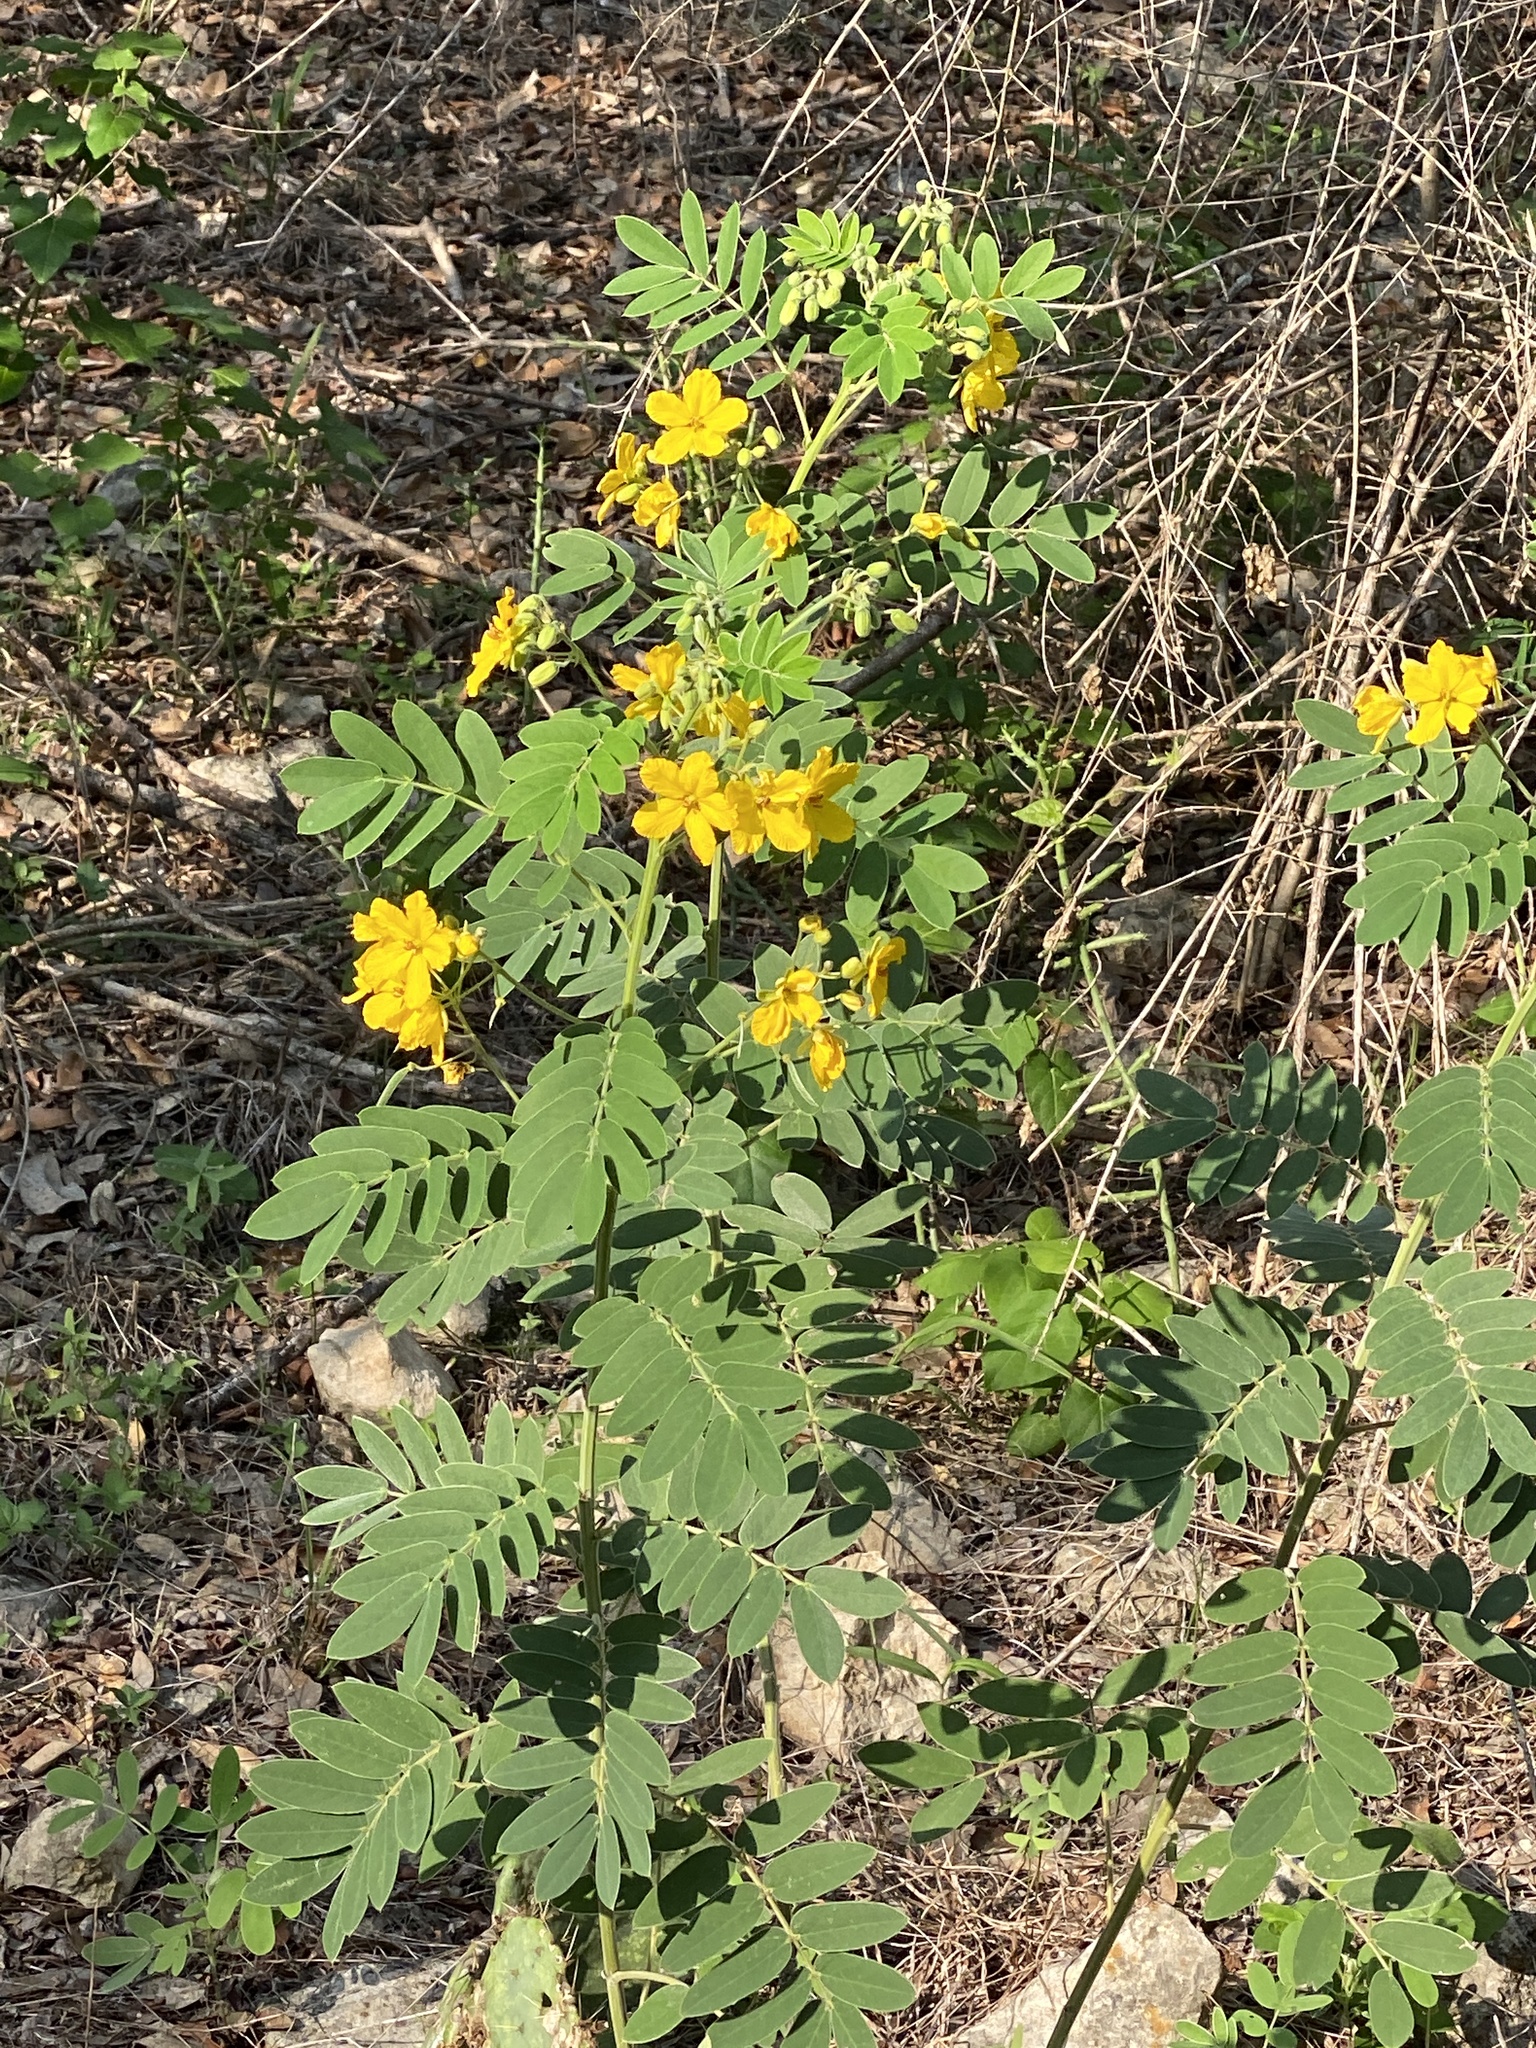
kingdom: Plantae
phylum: Tracheophyta
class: Magnoliopsida
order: Fabales
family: Fabaceae
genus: Senna
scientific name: Senna lindheimeriana
